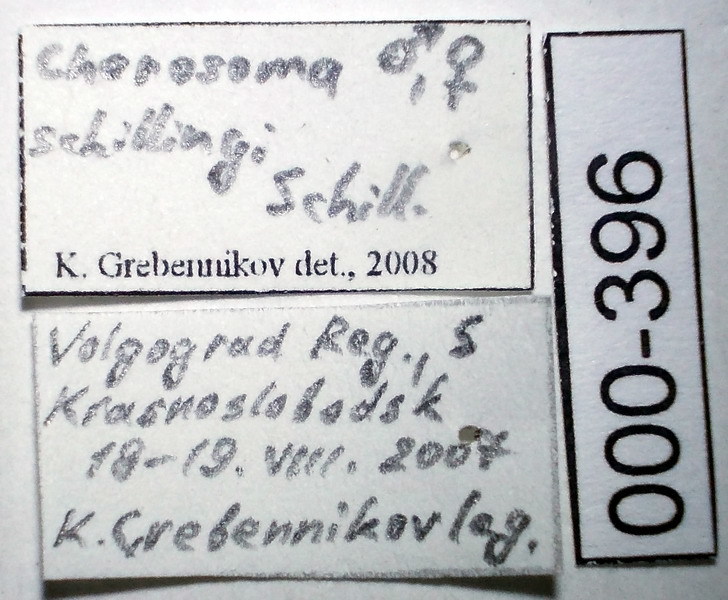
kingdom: Animalia
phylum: Arthropoda
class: Insecta
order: Hemiptera
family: Rhopalidae
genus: Chorosoma
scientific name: Chorosoma schillingii
